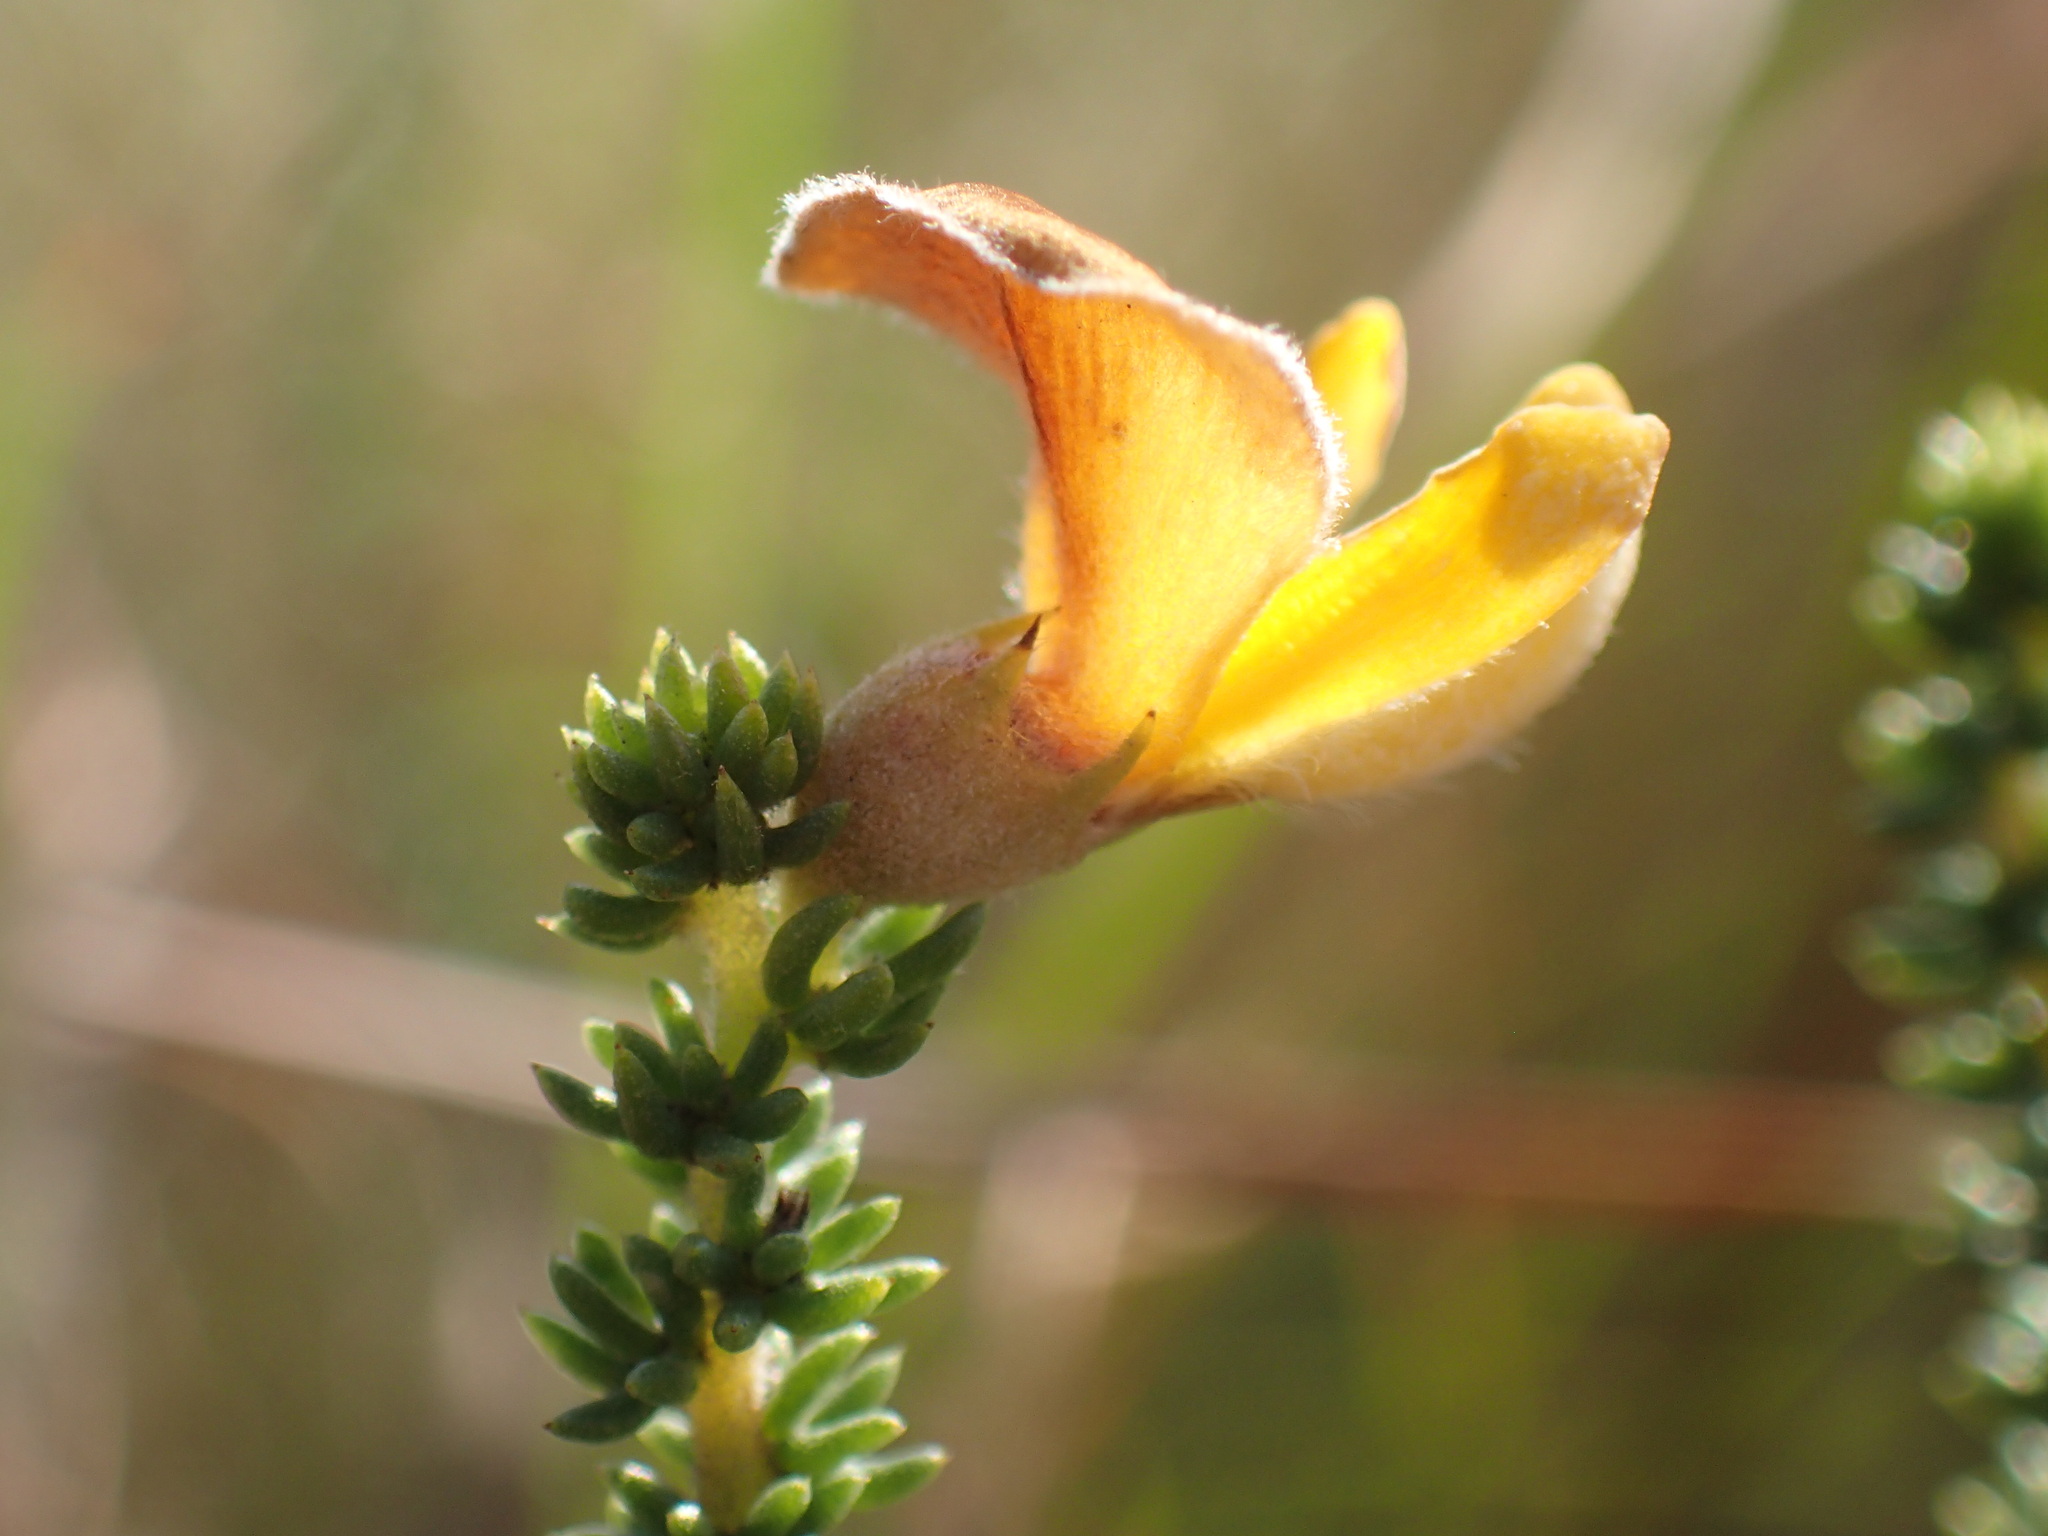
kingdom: Plantae
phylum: Tracheophyta
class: Magnoliopsida
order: Fabales
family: Fabaceae
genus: Aspalathus
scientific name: Aspalathus chortophila
